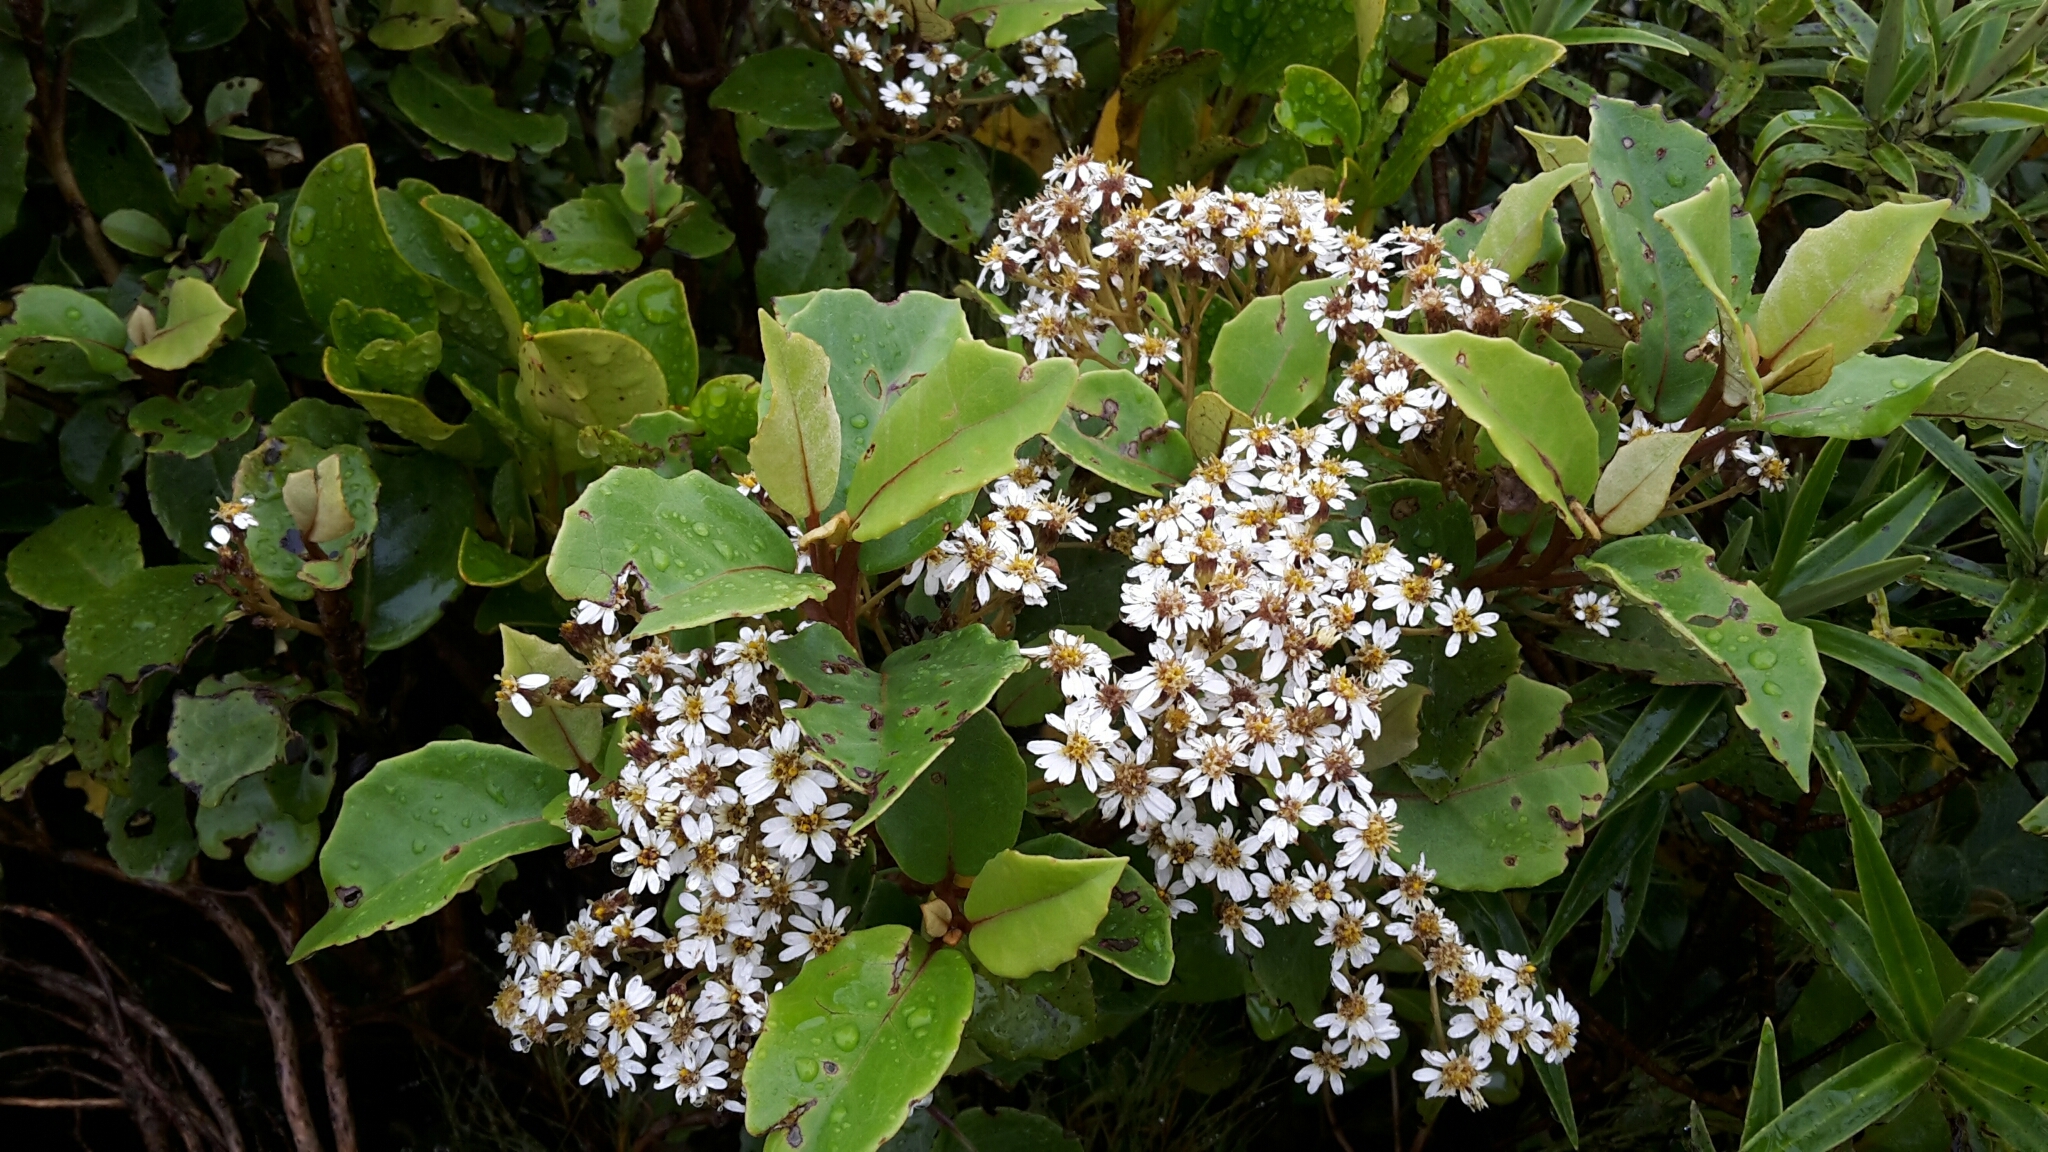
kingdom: Plantae
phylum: Tracheophyta
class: Magnoliopsida
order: Asterales
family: Asteraceae
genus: Olearia
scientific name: Olearia arborescens
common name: Glossy tree daisy
